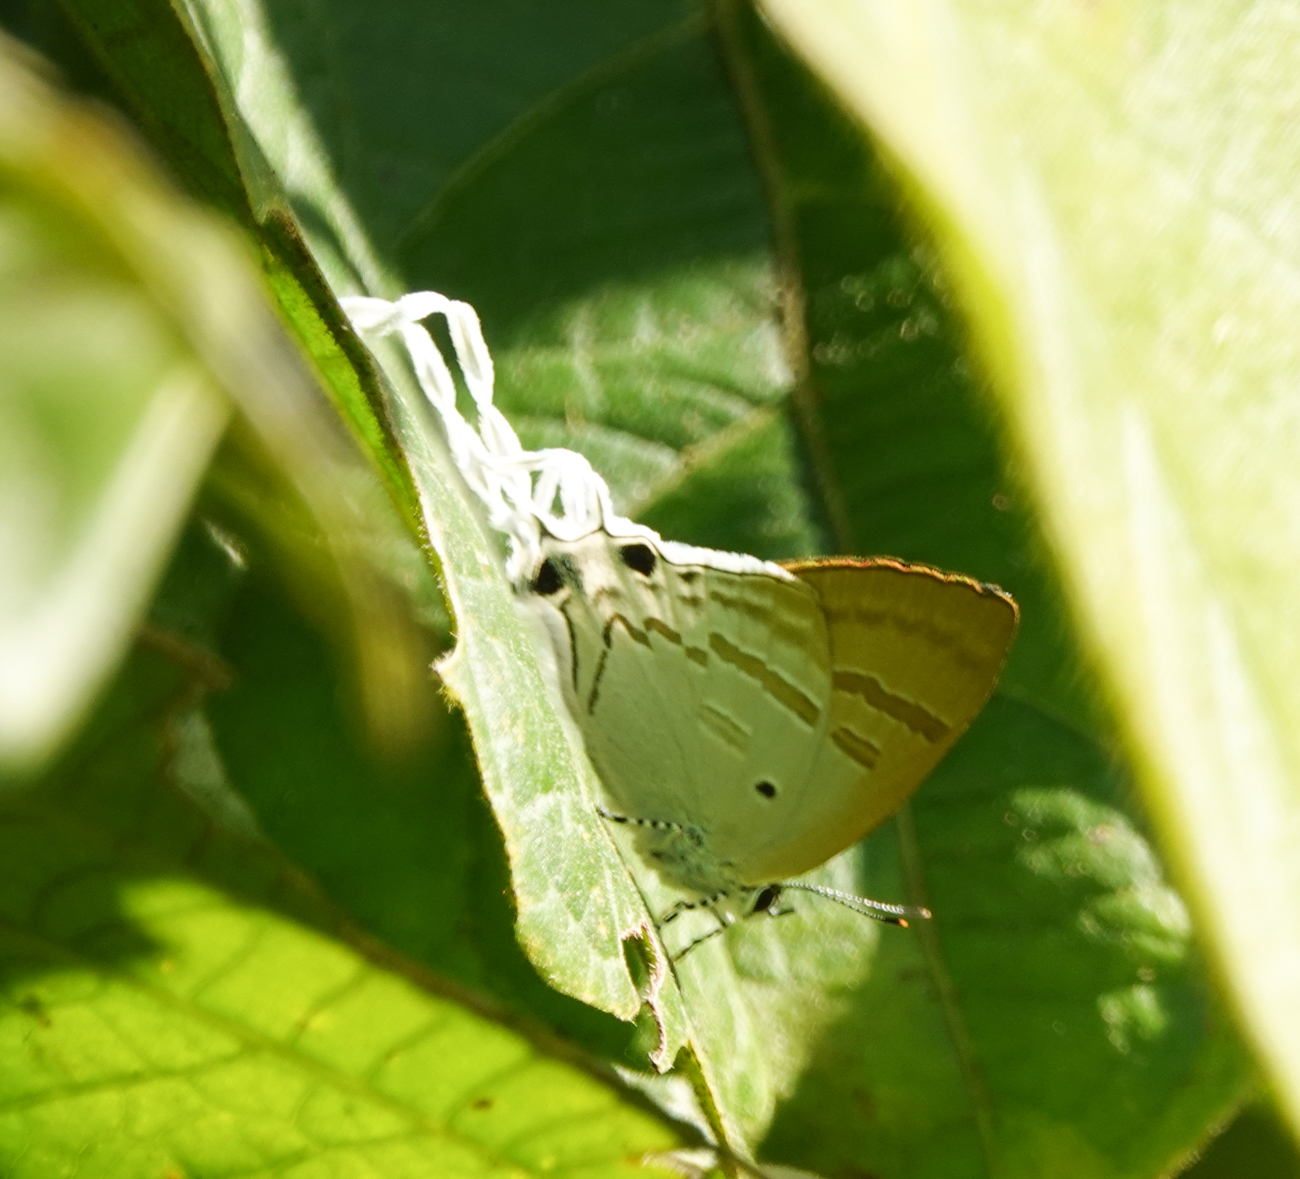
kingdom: Animalia
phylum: Arthropoda
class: Insecta
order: Lepidoptera
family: Lycaenidae
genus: Zeltus
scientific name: Zeltus amasa
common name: Fluffy tit
